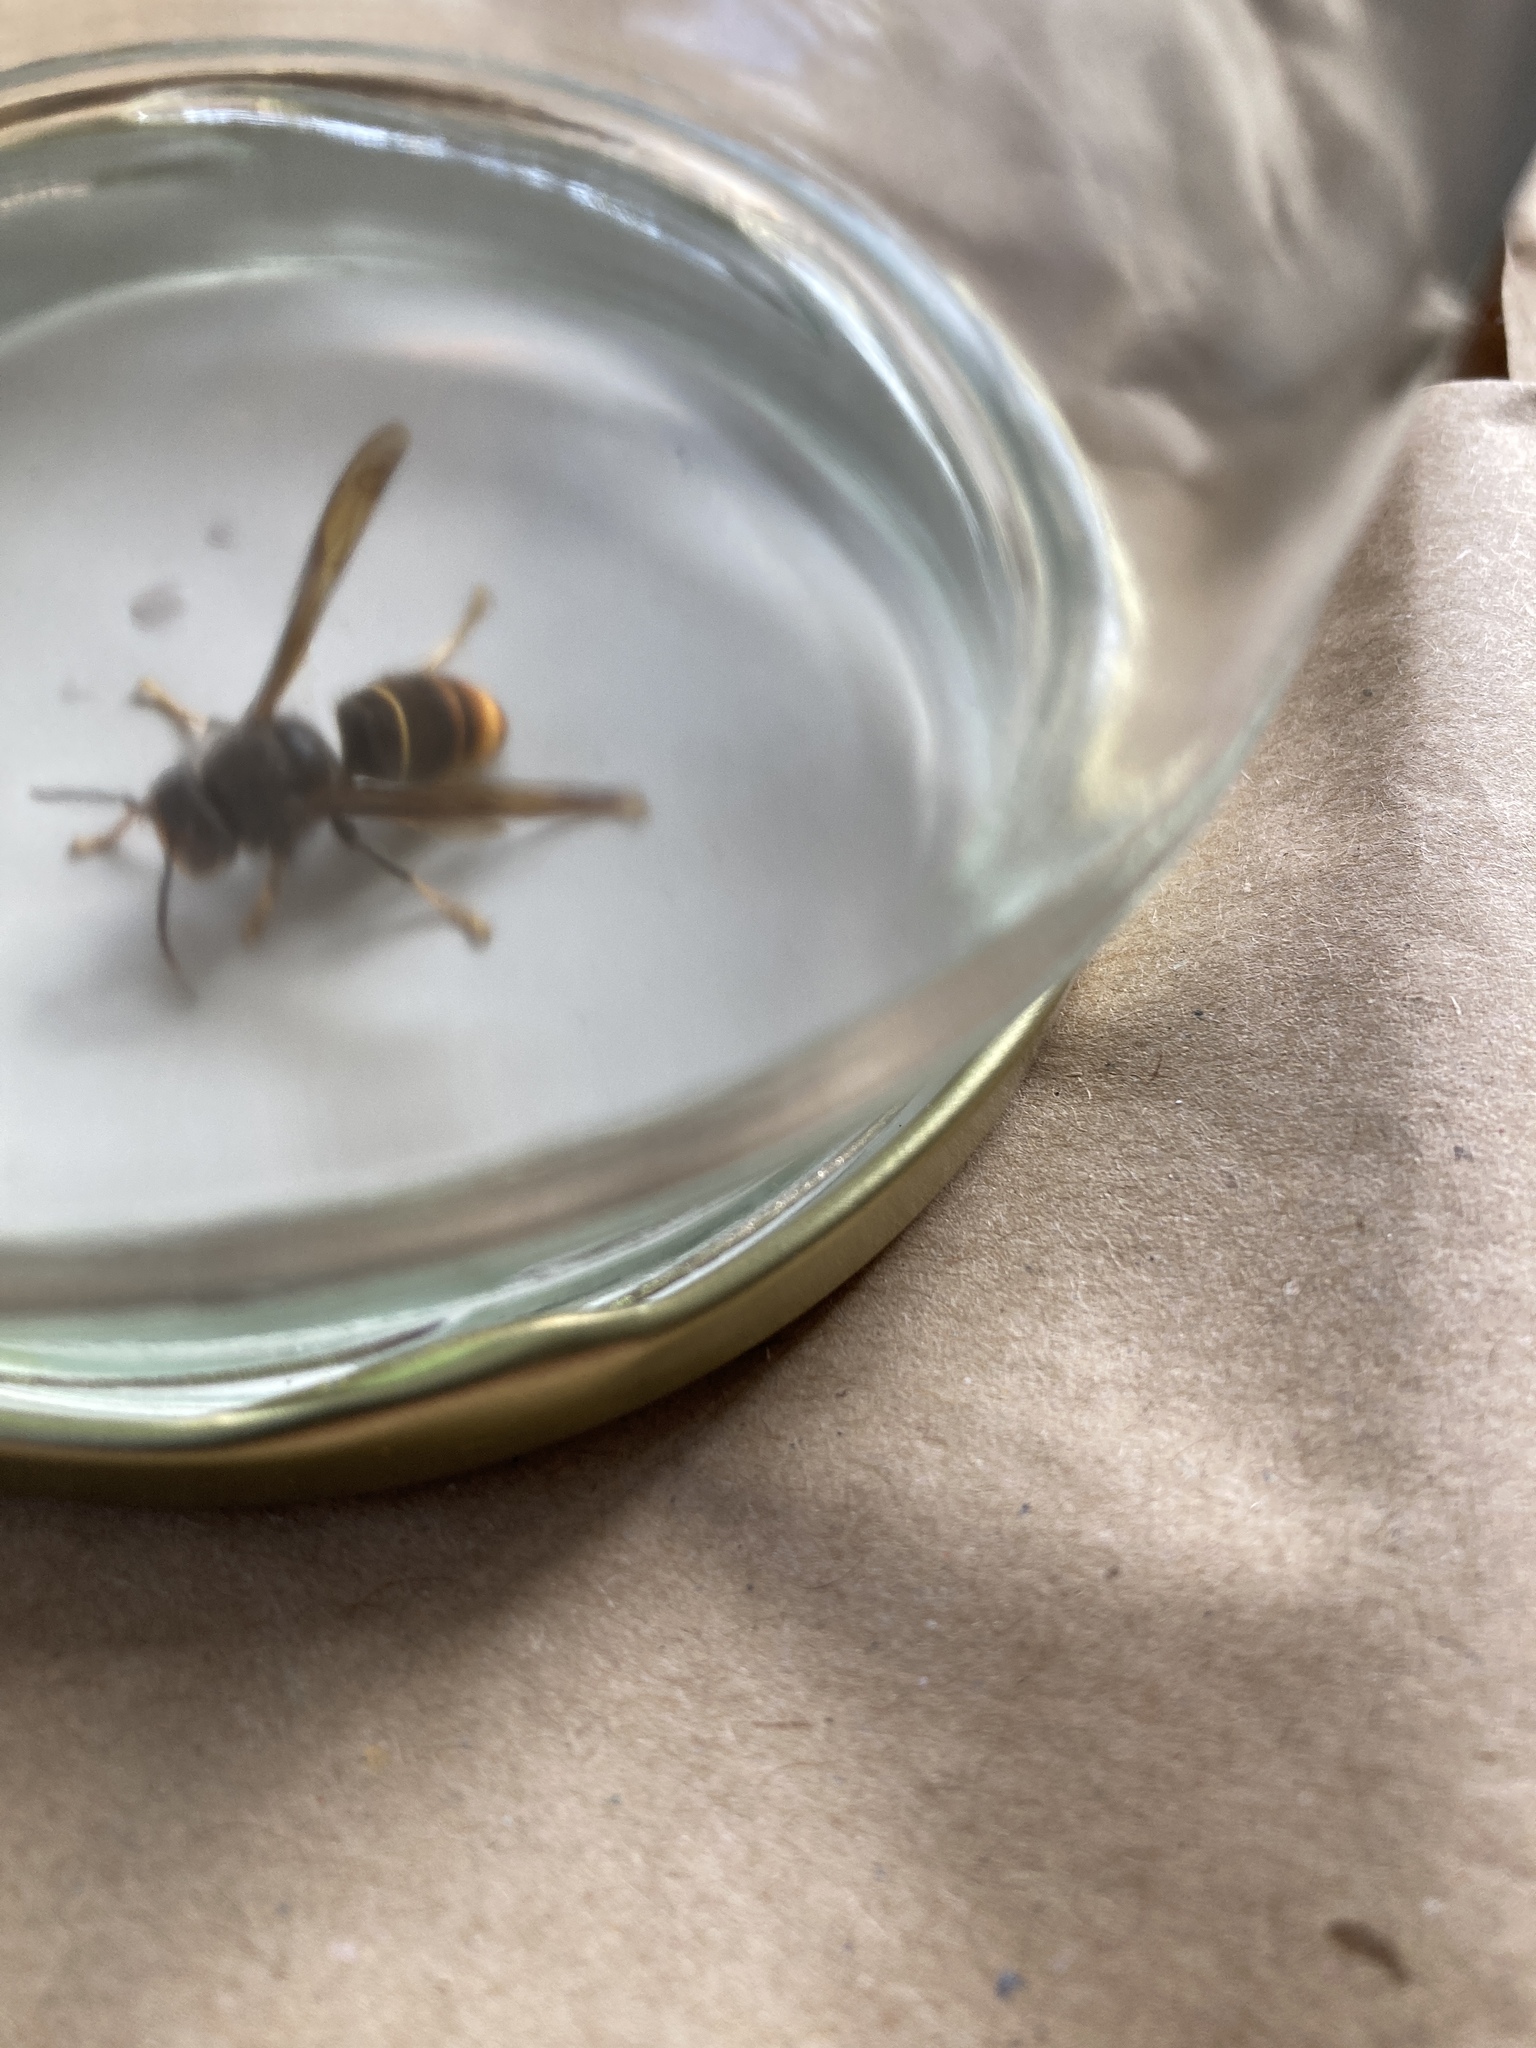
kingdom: Animalia
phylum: Arthropoda
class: Insecta
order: Hymenoptera
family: Vespidae
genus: Vespa
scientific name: Vespa velutina
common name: Asian hornet
